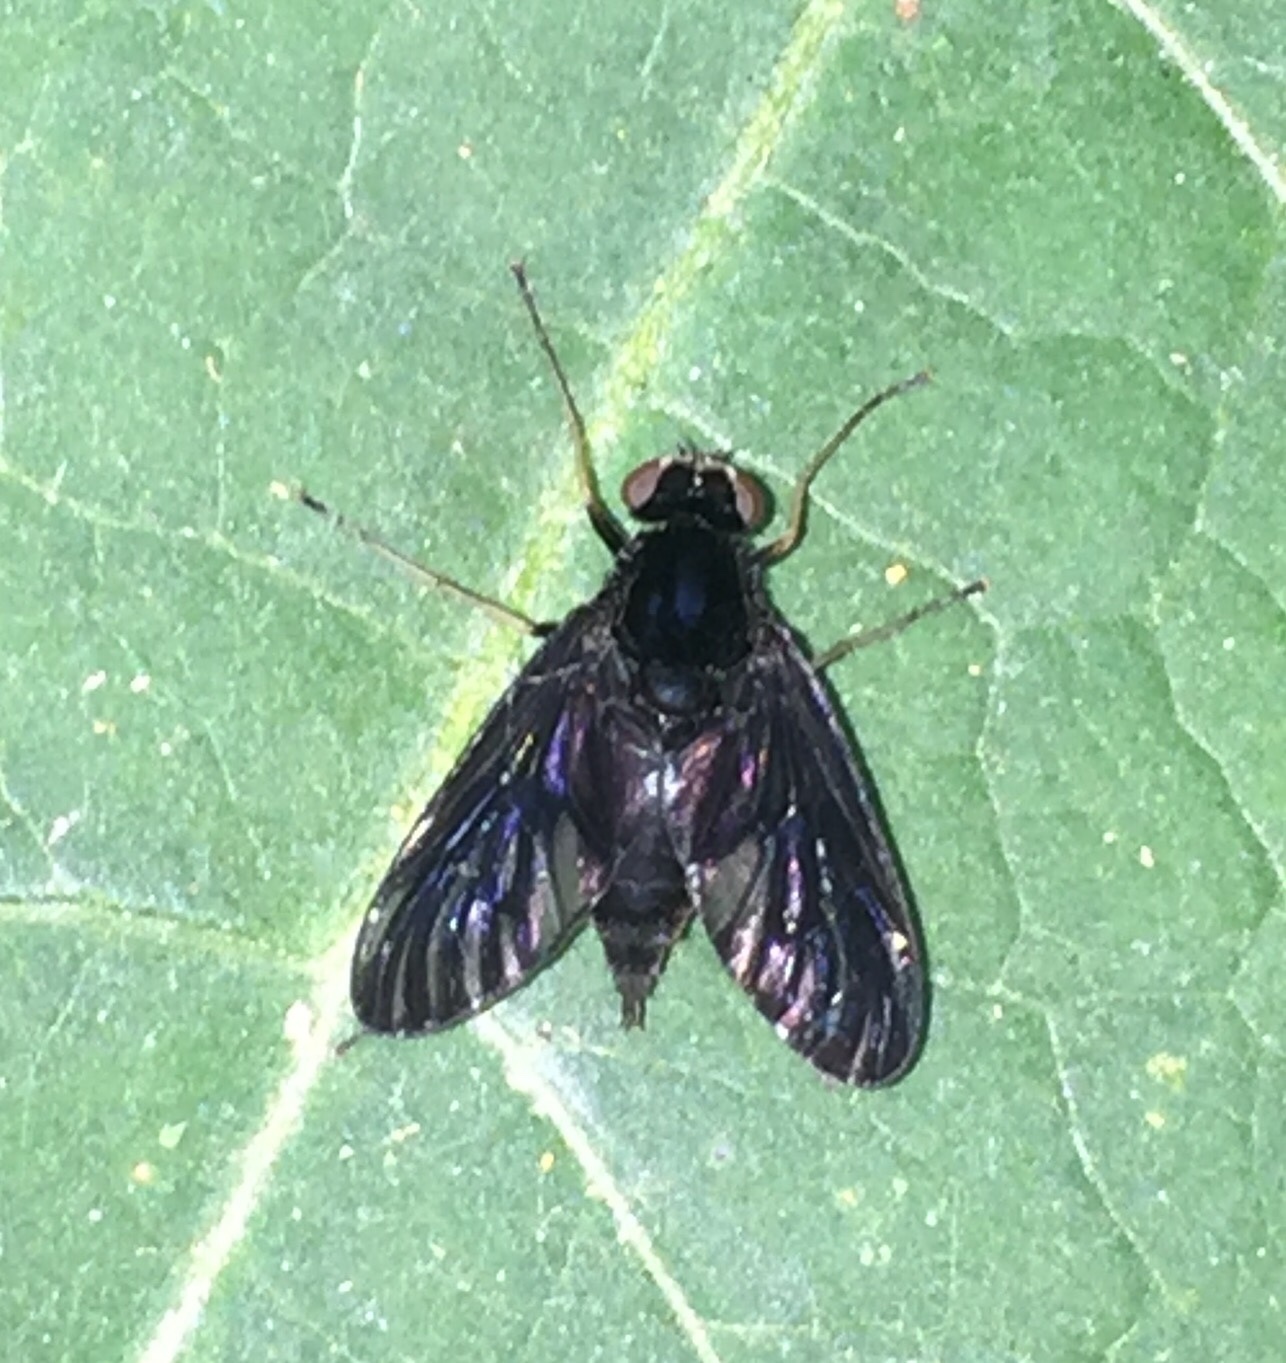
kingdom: Animalia
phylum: Arthropoda
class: Insecta
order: Diptera
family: Rhagionidae
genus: Chrysopilus
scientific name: Chrysopilus velutinus
